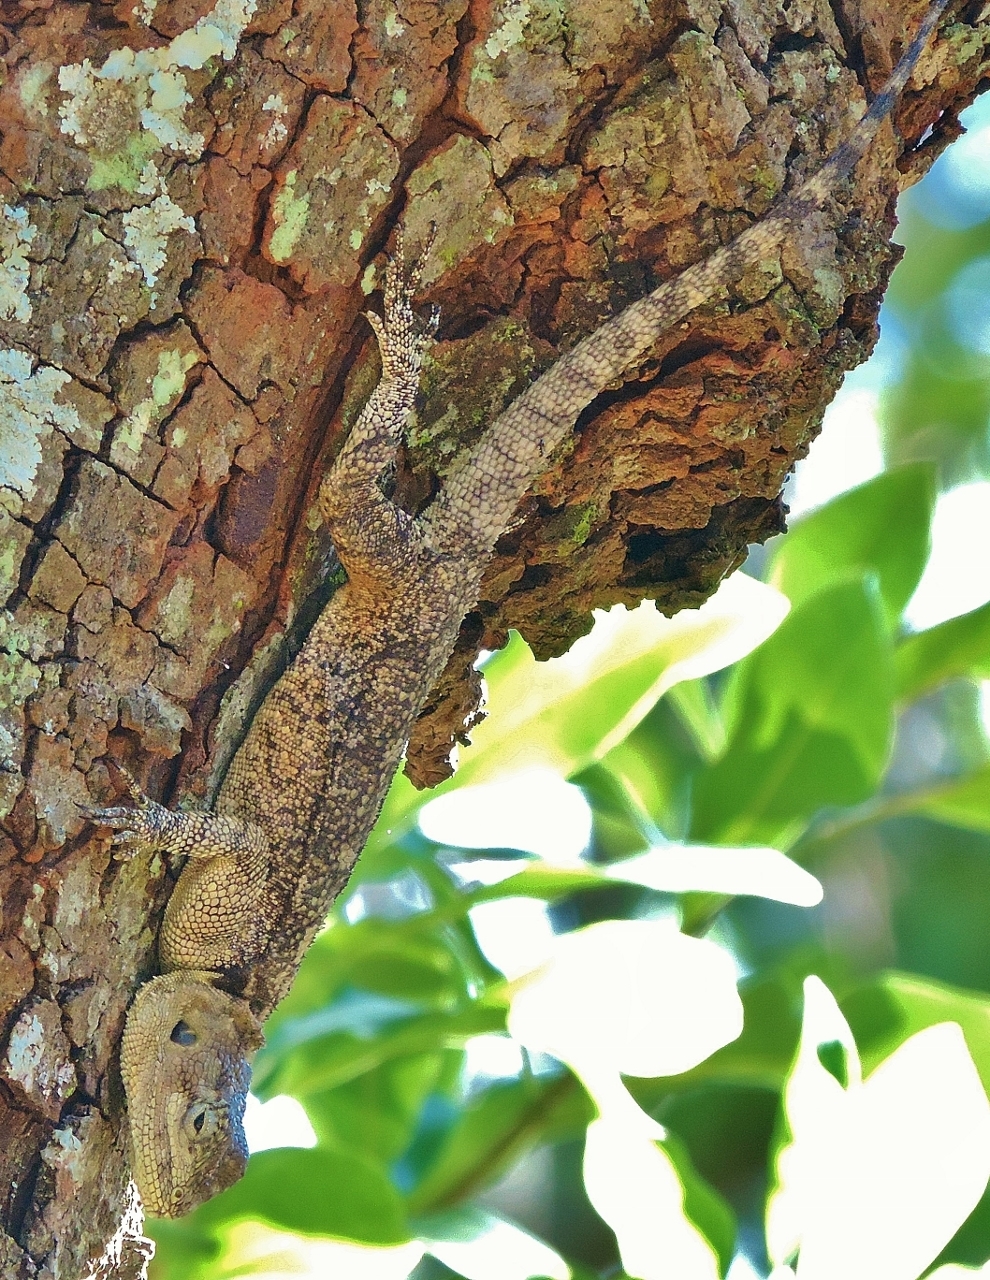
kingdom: Animalia
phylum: Chordata
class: Squamata
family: Agamidae
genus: Acanthocercus
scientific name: Acanthocercus
